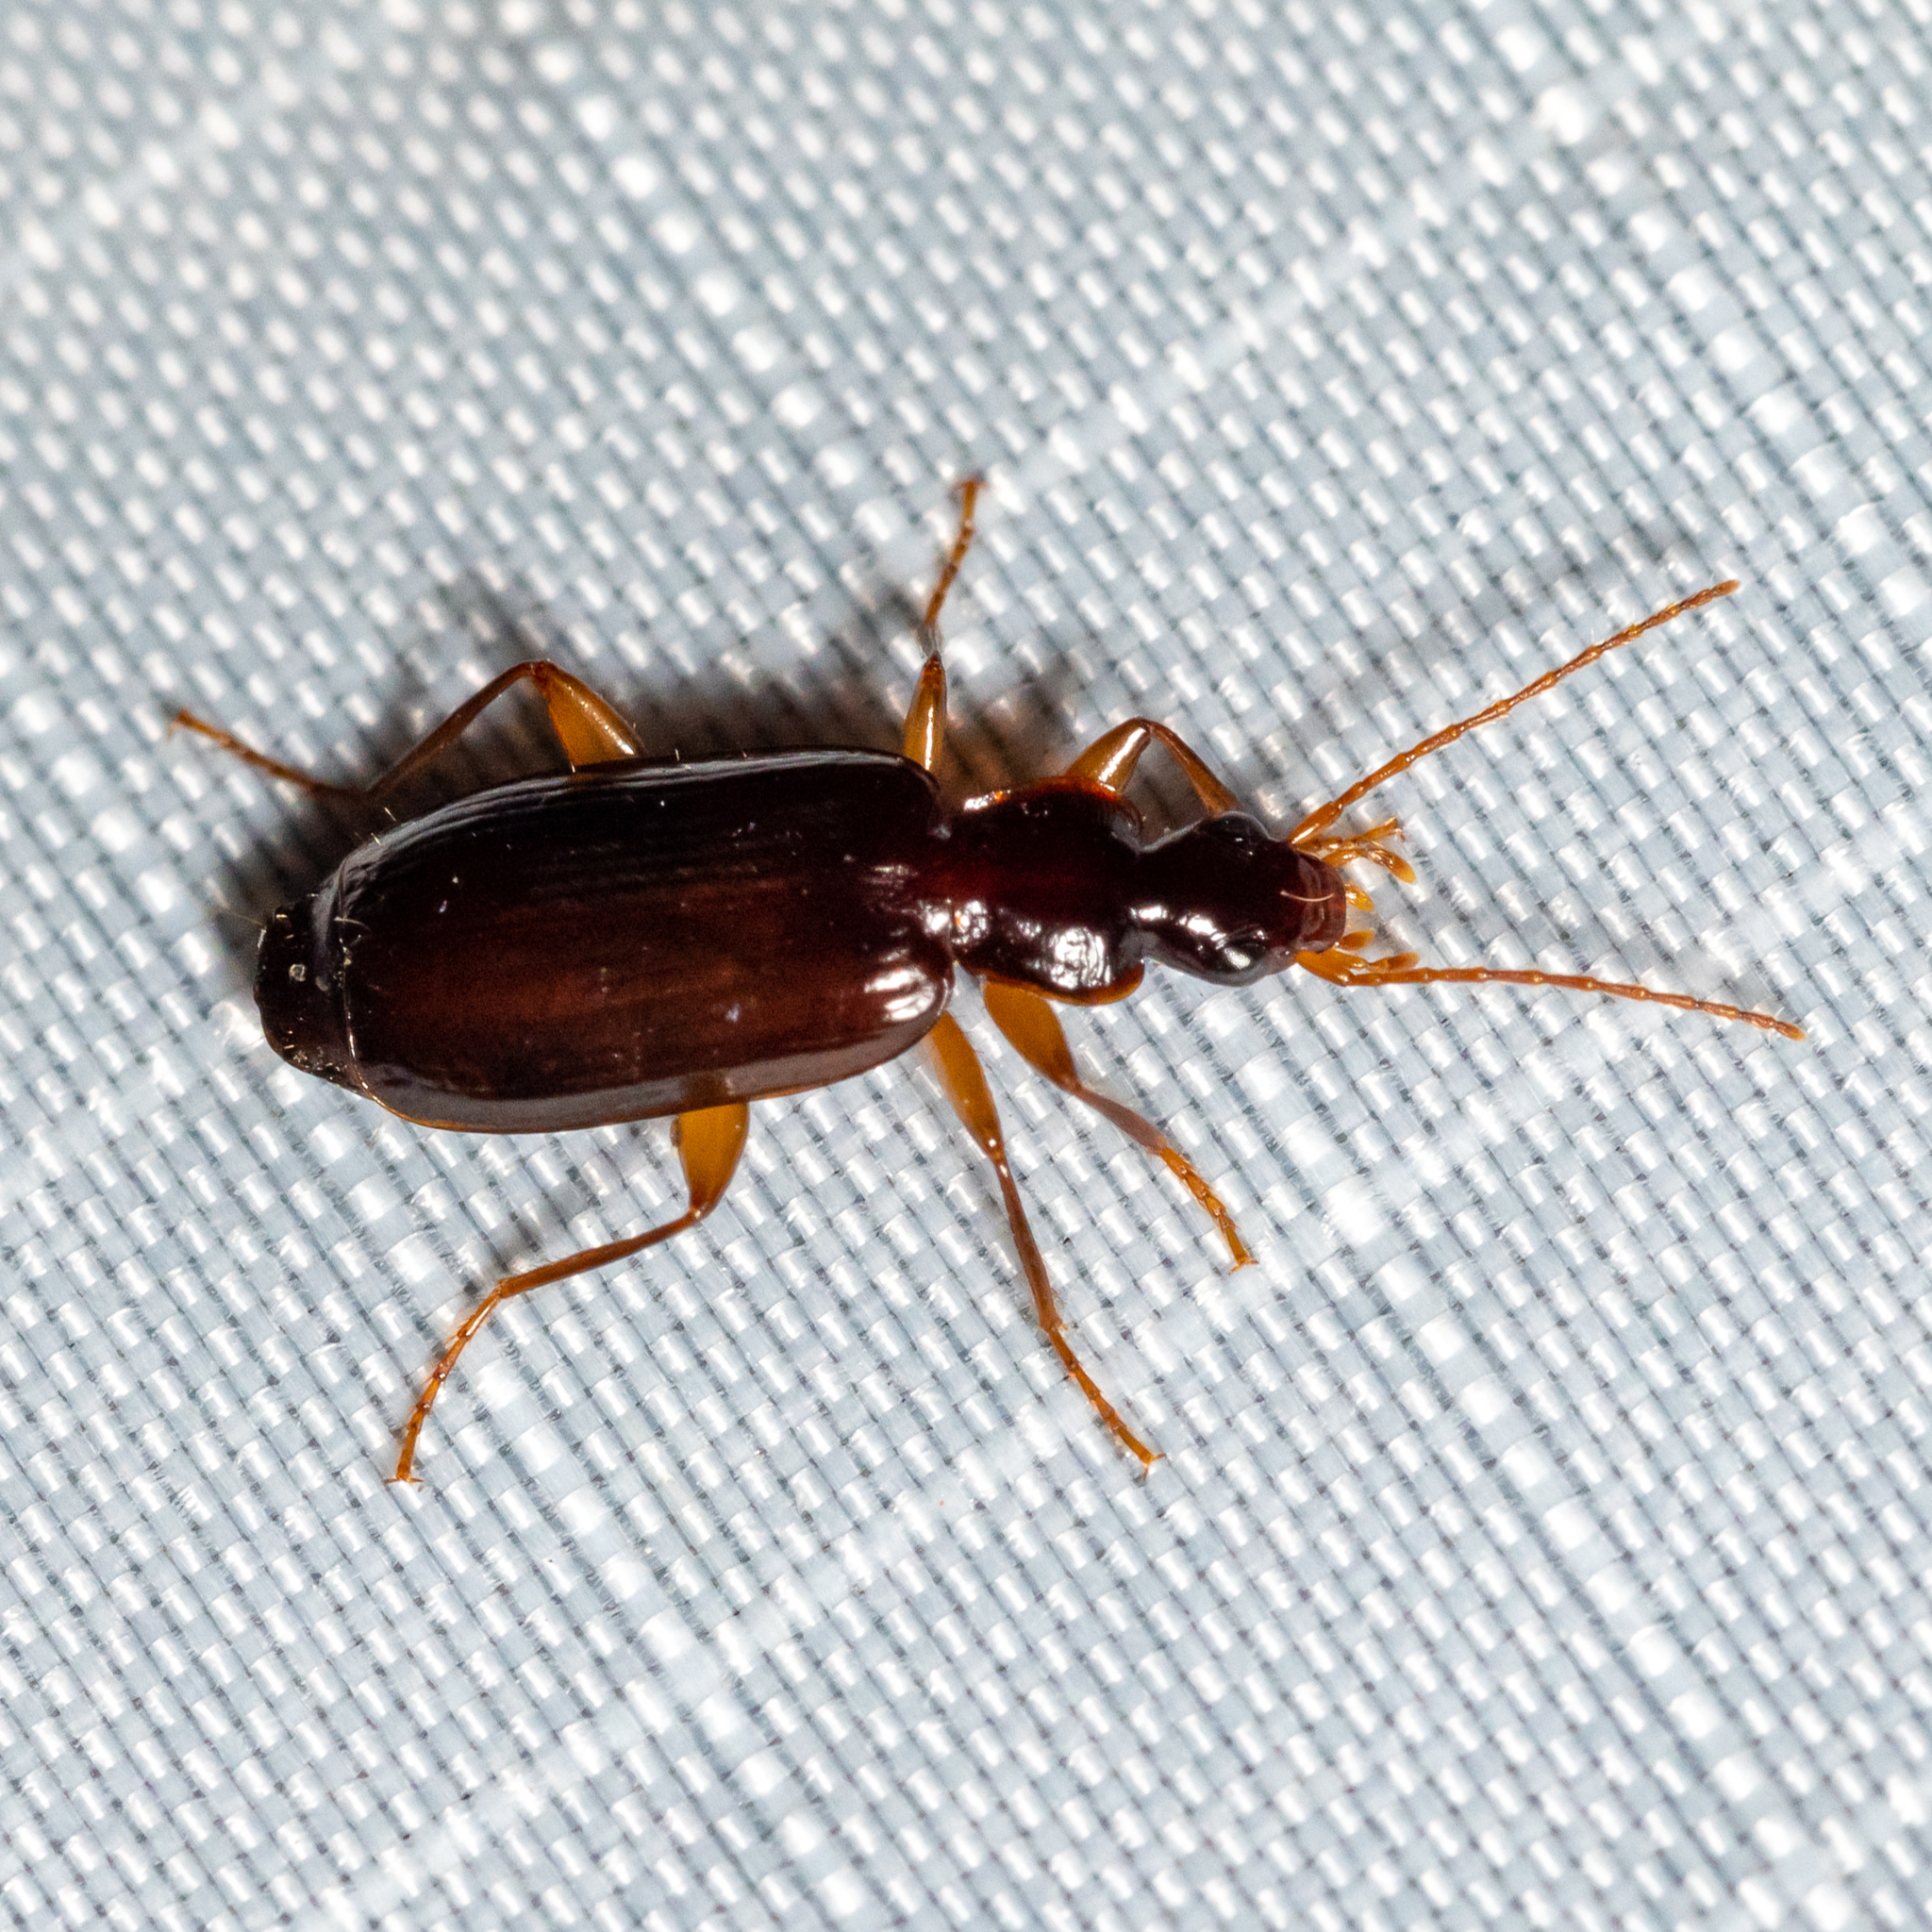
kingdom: Animalia
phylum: Arthropoda
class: Insecta
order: Coleoptera
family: Carabidae
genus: Dromius
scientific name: Dromius piceus
